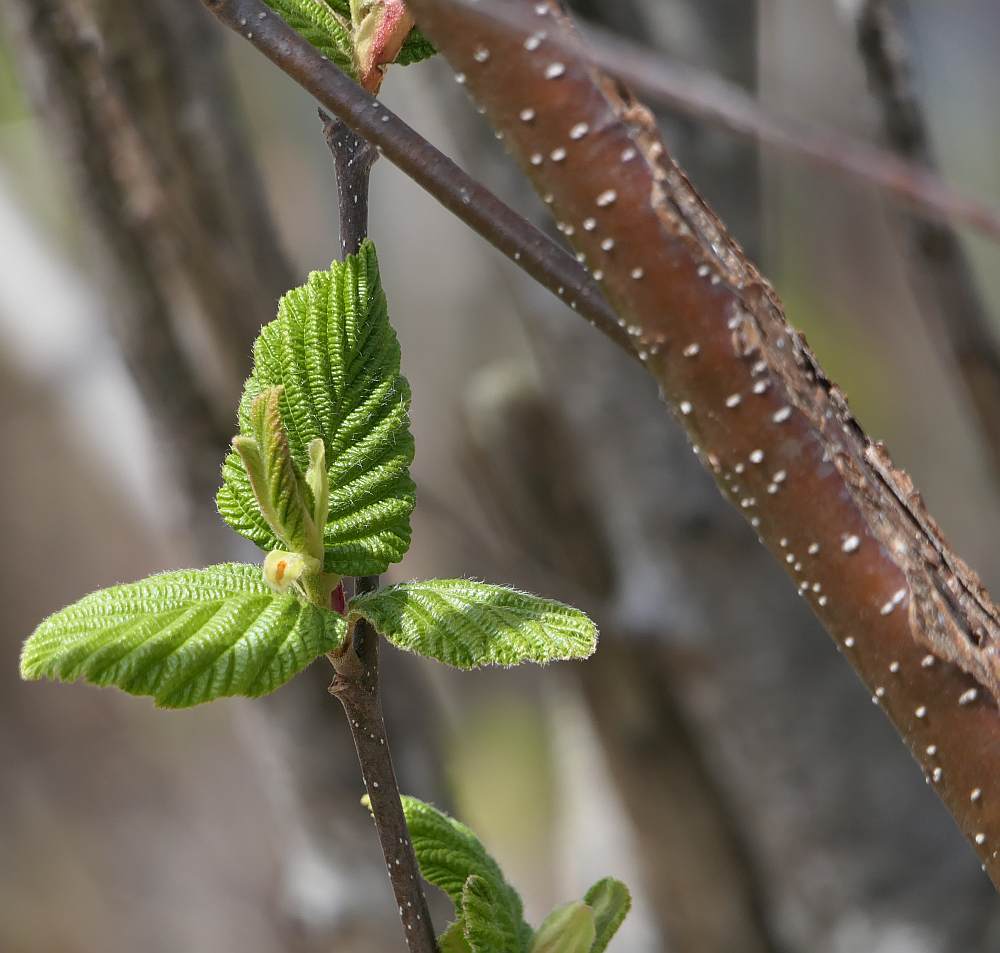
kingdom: Plantae
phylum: Tracheophyta
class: Magnoliopsida
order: Fagales
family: Betulaceae
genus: Alnus
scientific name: Alnus incana
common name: Grey alder
